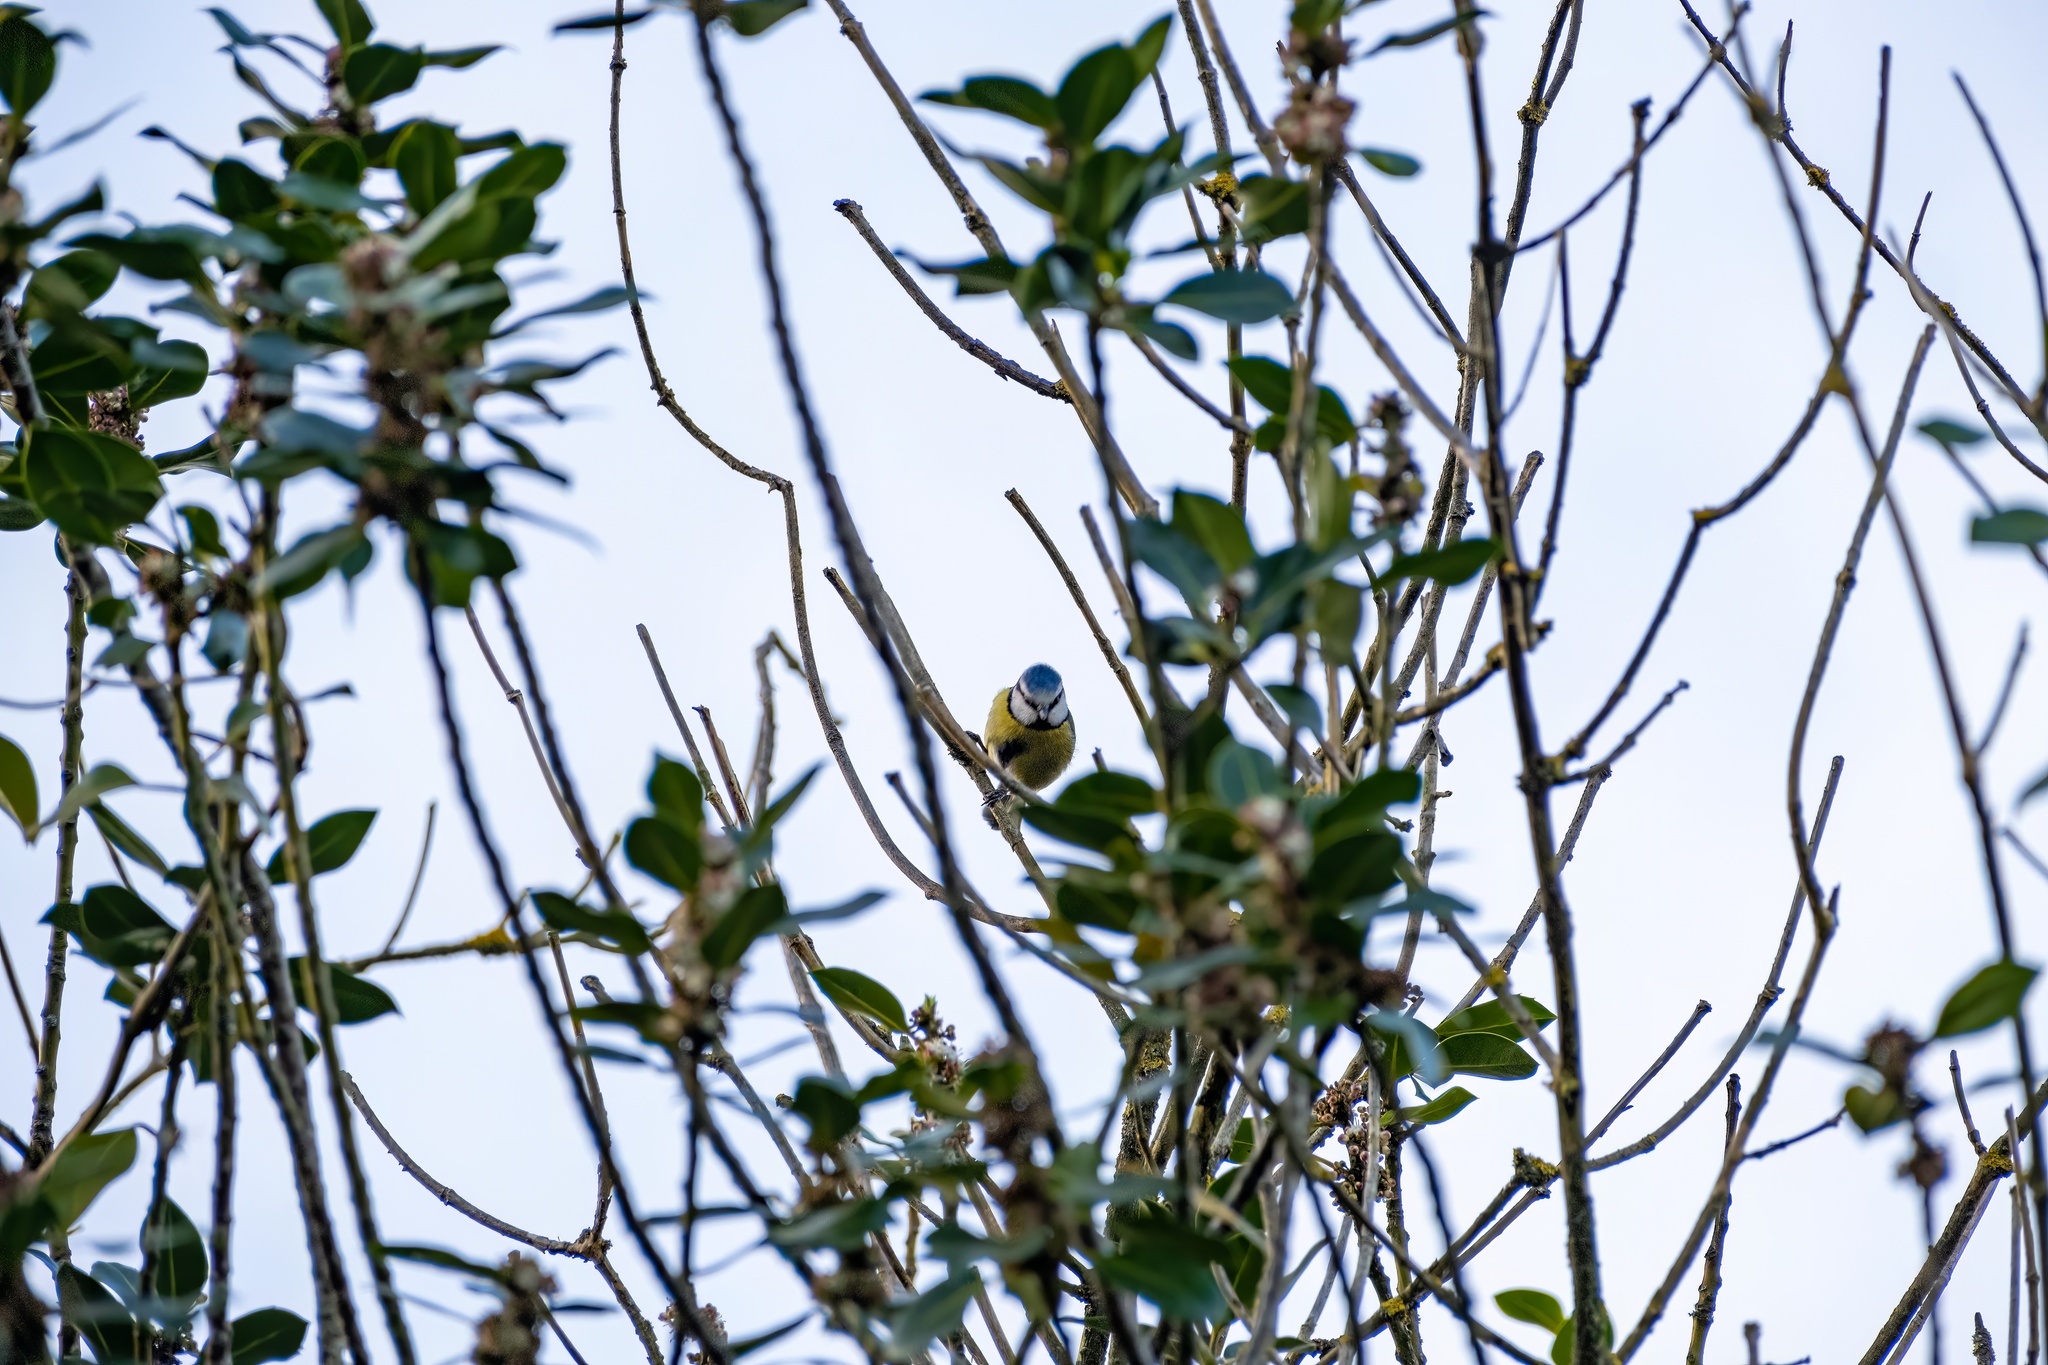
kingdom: Animalia
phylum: Chordata
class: Aves
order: Passeriformes
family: Paridae
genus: Cyanistes
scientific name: Cyanistes caeruleus
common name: Eurasian blue tit
